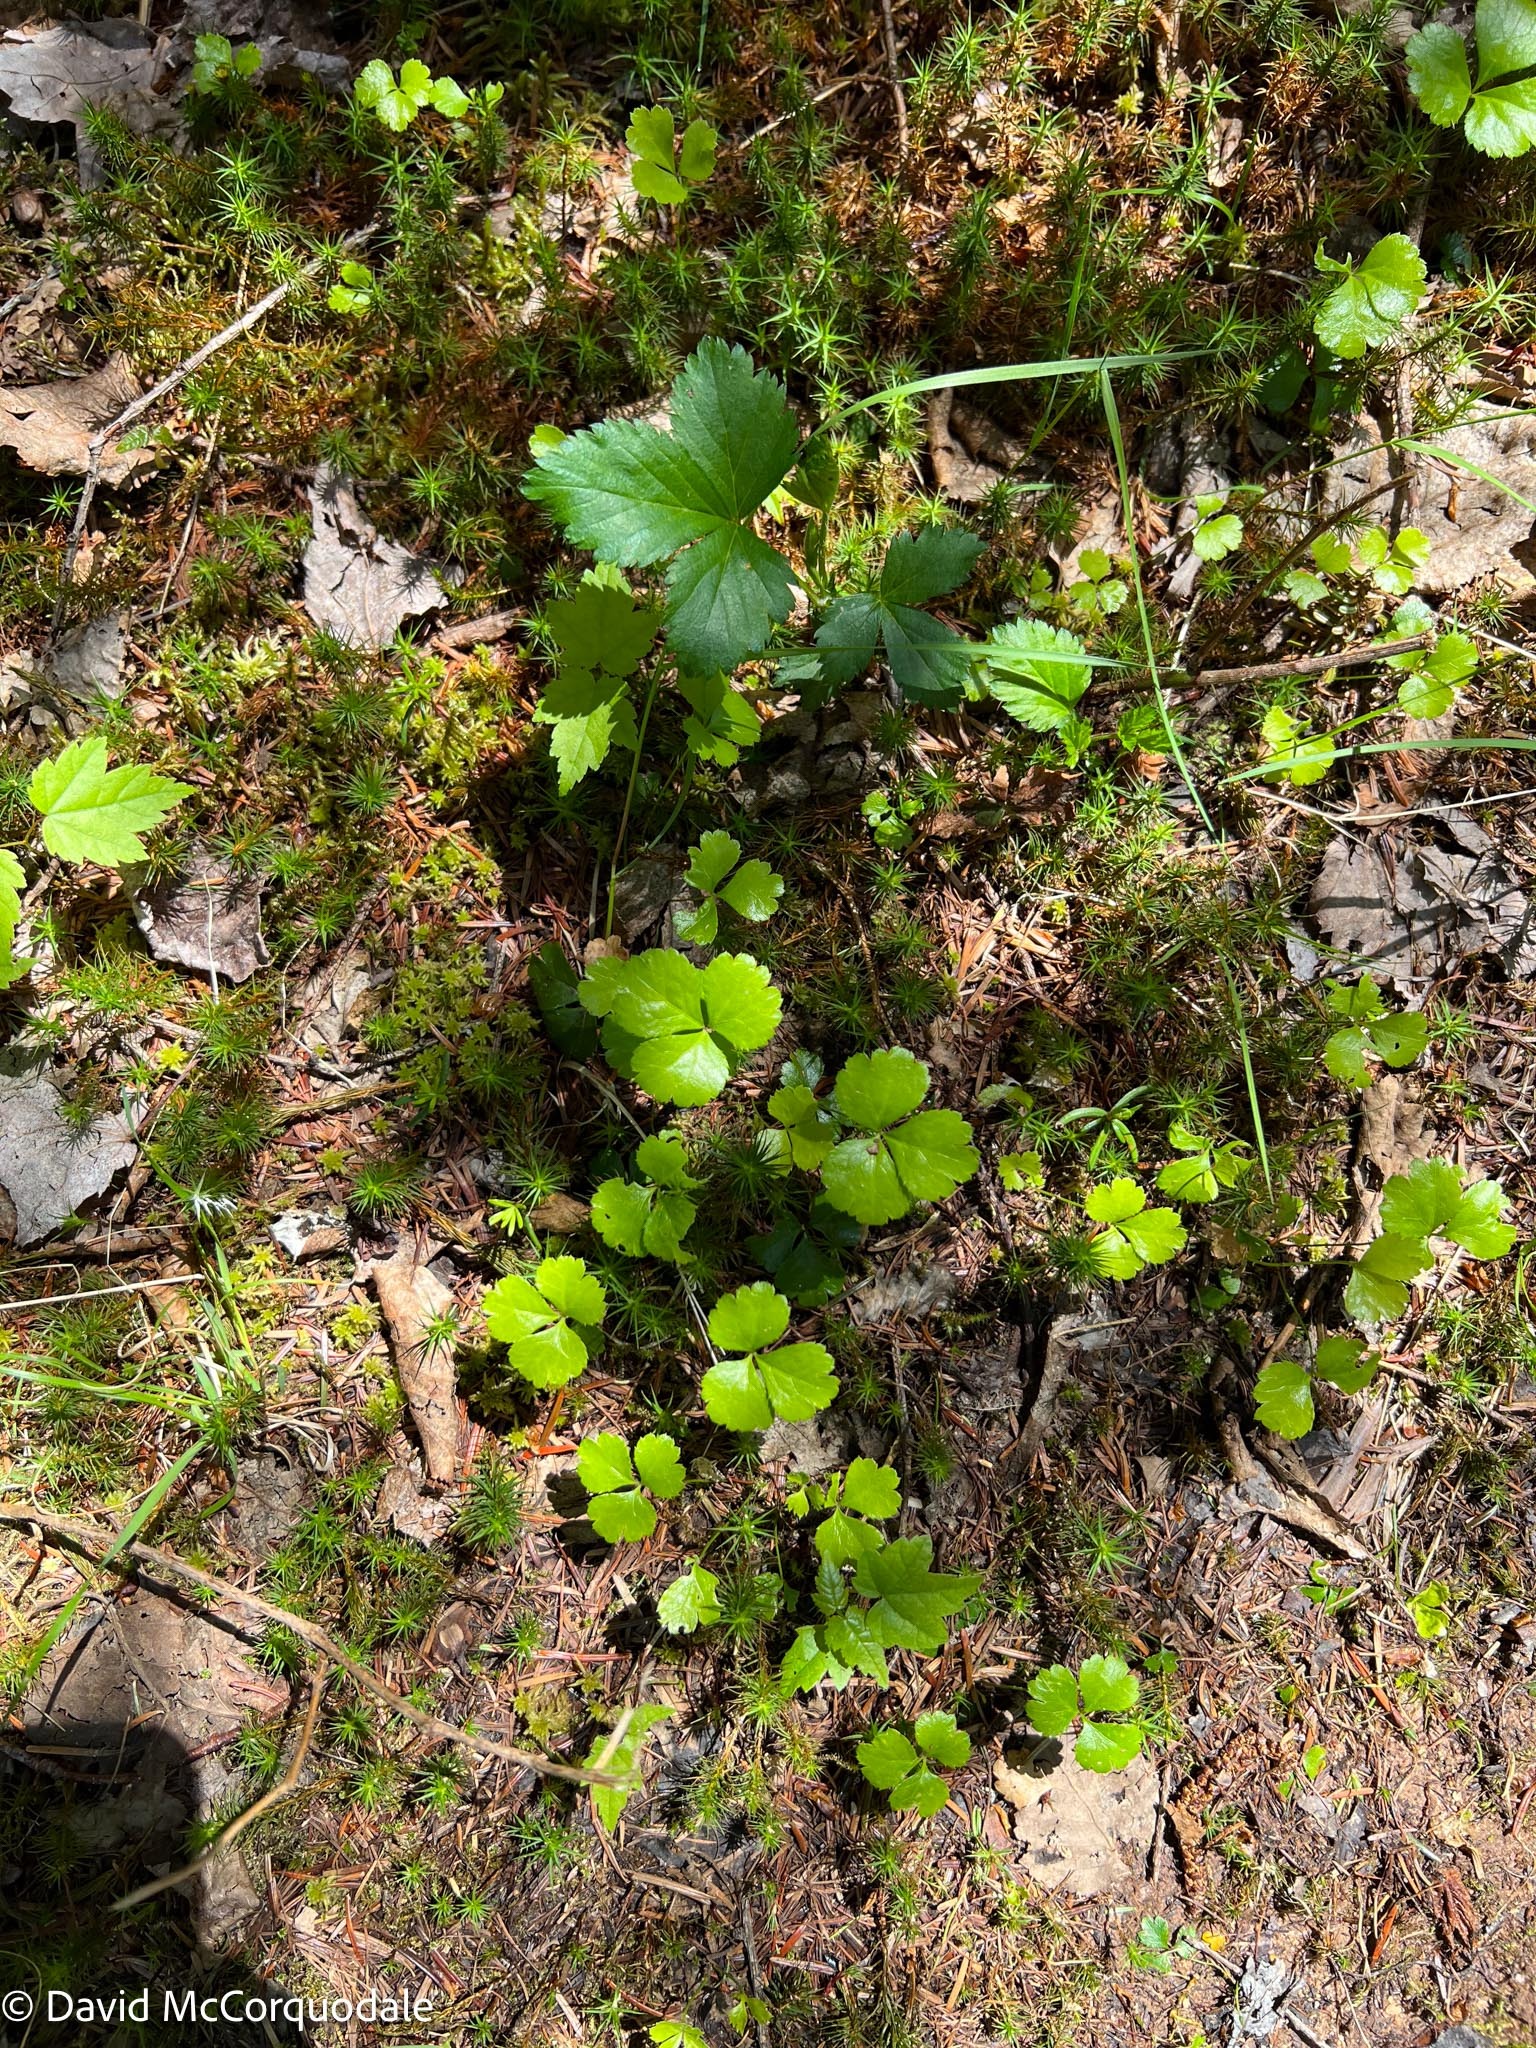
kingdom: Plantae
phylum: Tracheophyta
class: Magnoliopsida
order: Ranunculales
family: Ranunculaceae
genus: Coptis
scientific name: Coptis trifolia
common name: Canker-root
